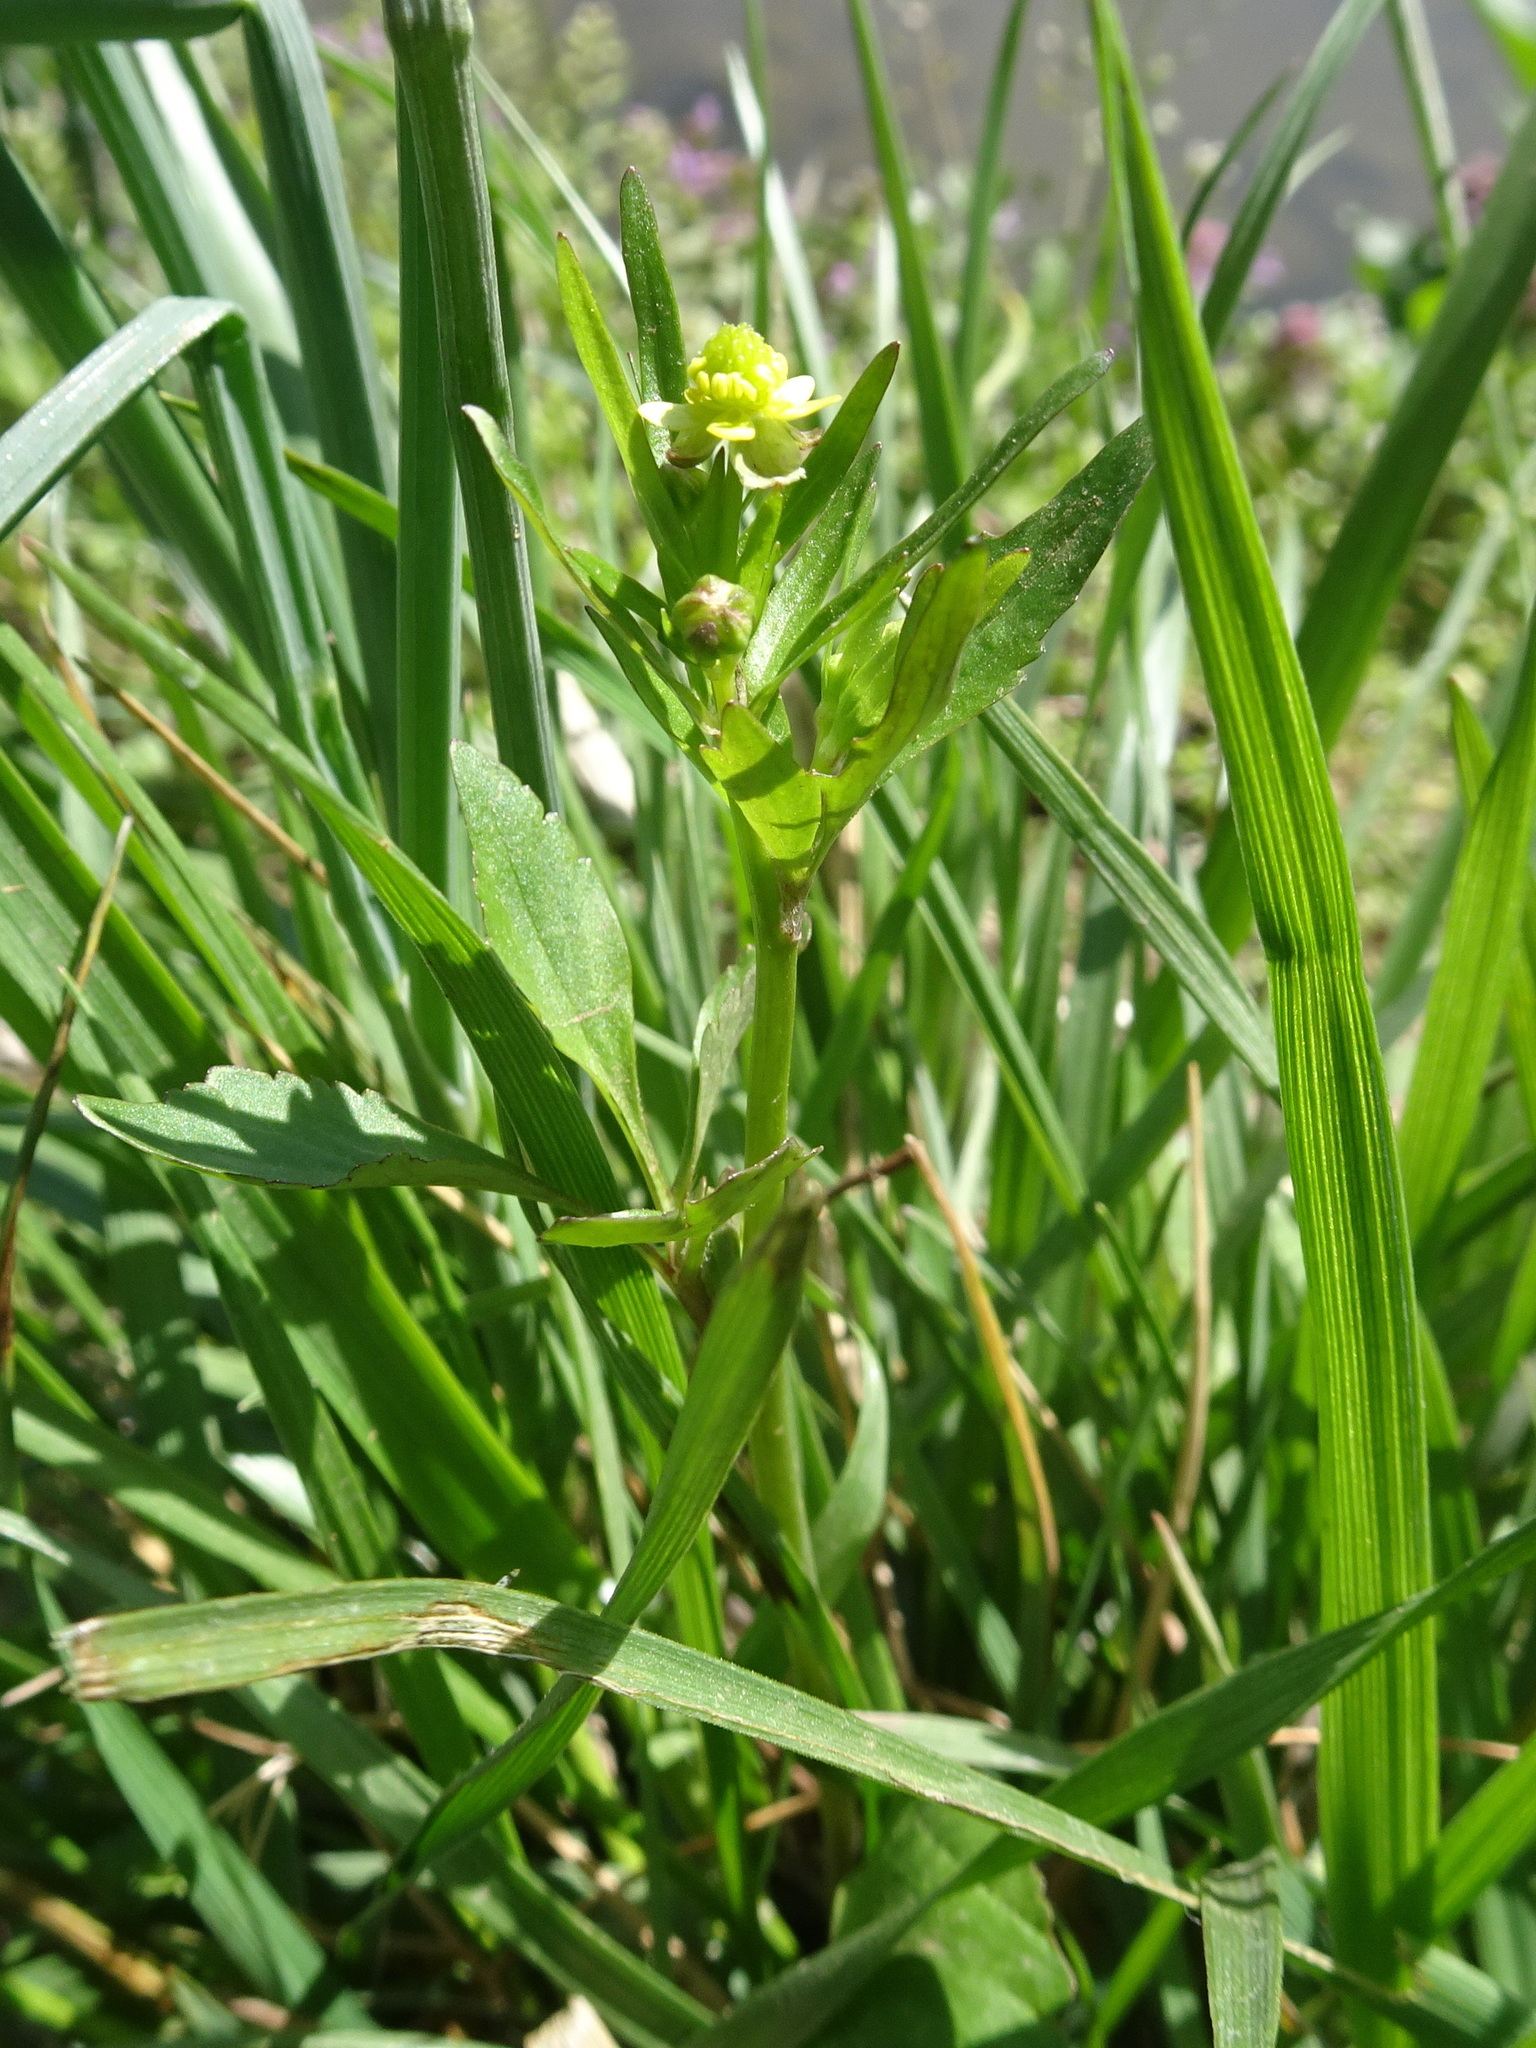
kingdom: Plantae
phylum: Tracheophyta
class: Magnoliopsida
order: Ranunculales
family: Ranunculaceae
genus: Ranunculus
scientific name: Ranunculus abortivus
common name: Early wood buttercup
